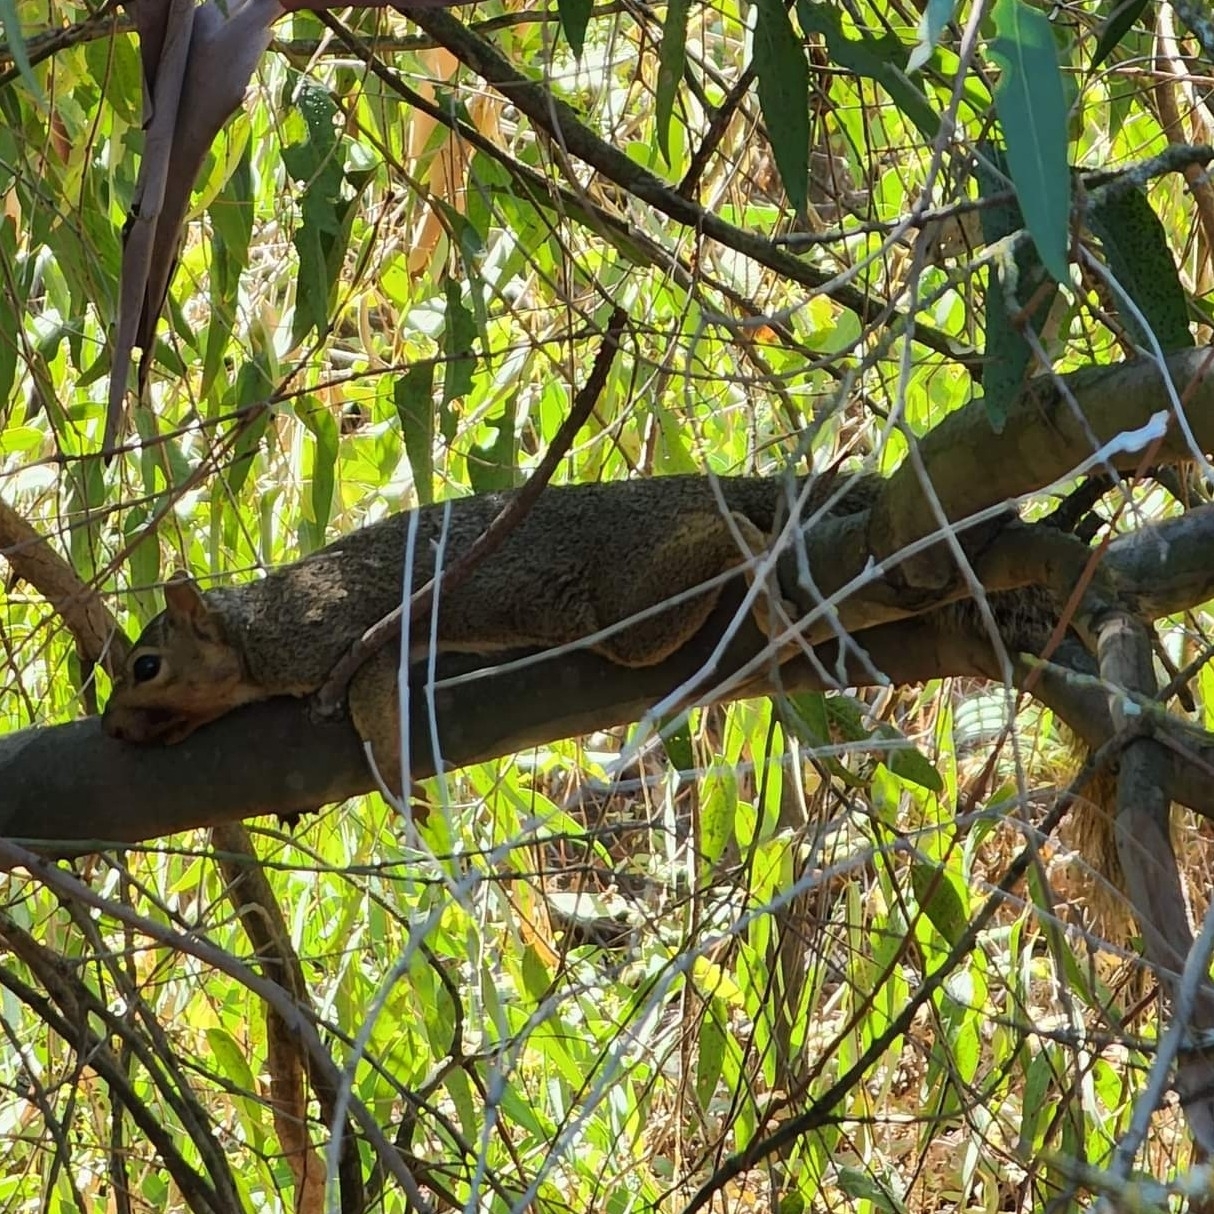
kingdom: Animalia
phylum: Chordata
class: Mammalia
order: Rodentia
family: Sciuridae
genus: Sciurus
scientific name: Sciurus niger
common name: Fox squirrel
